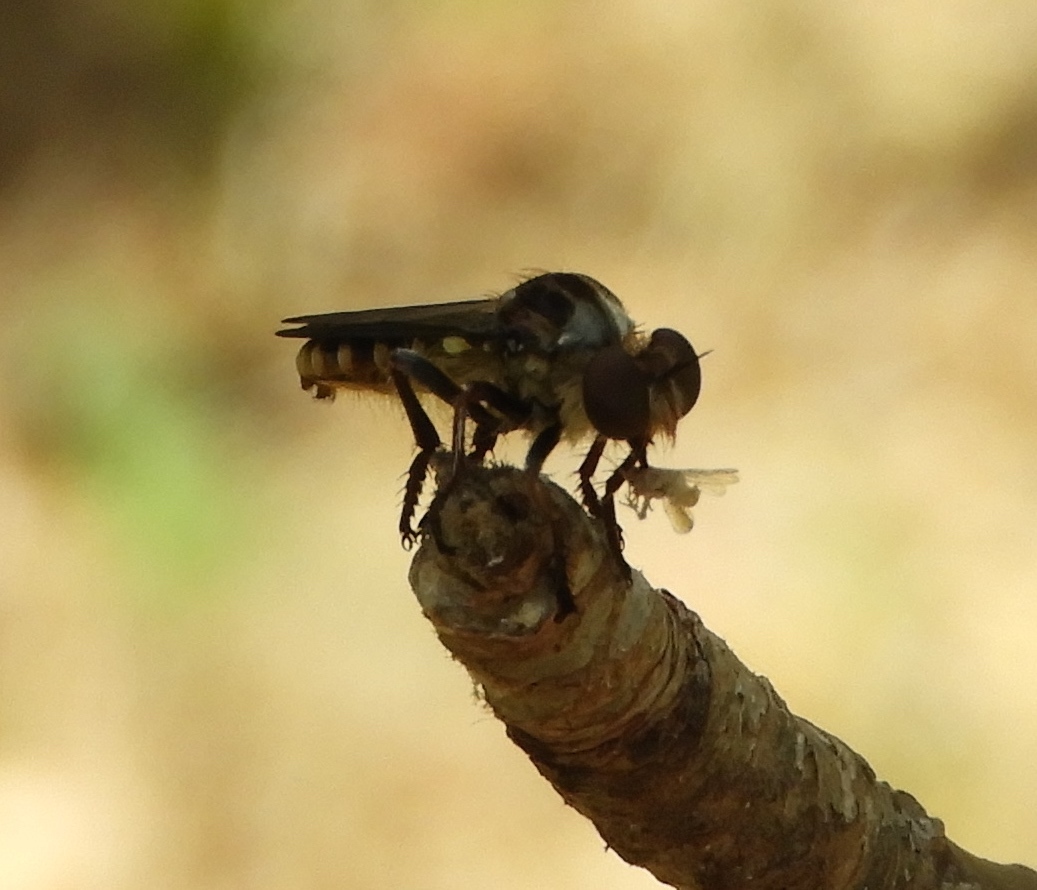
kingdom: Animalia
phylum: Arthropoda
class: Insecta
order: Diptera
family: Asilidae
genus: Heteropogon
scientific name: Heteropogon
